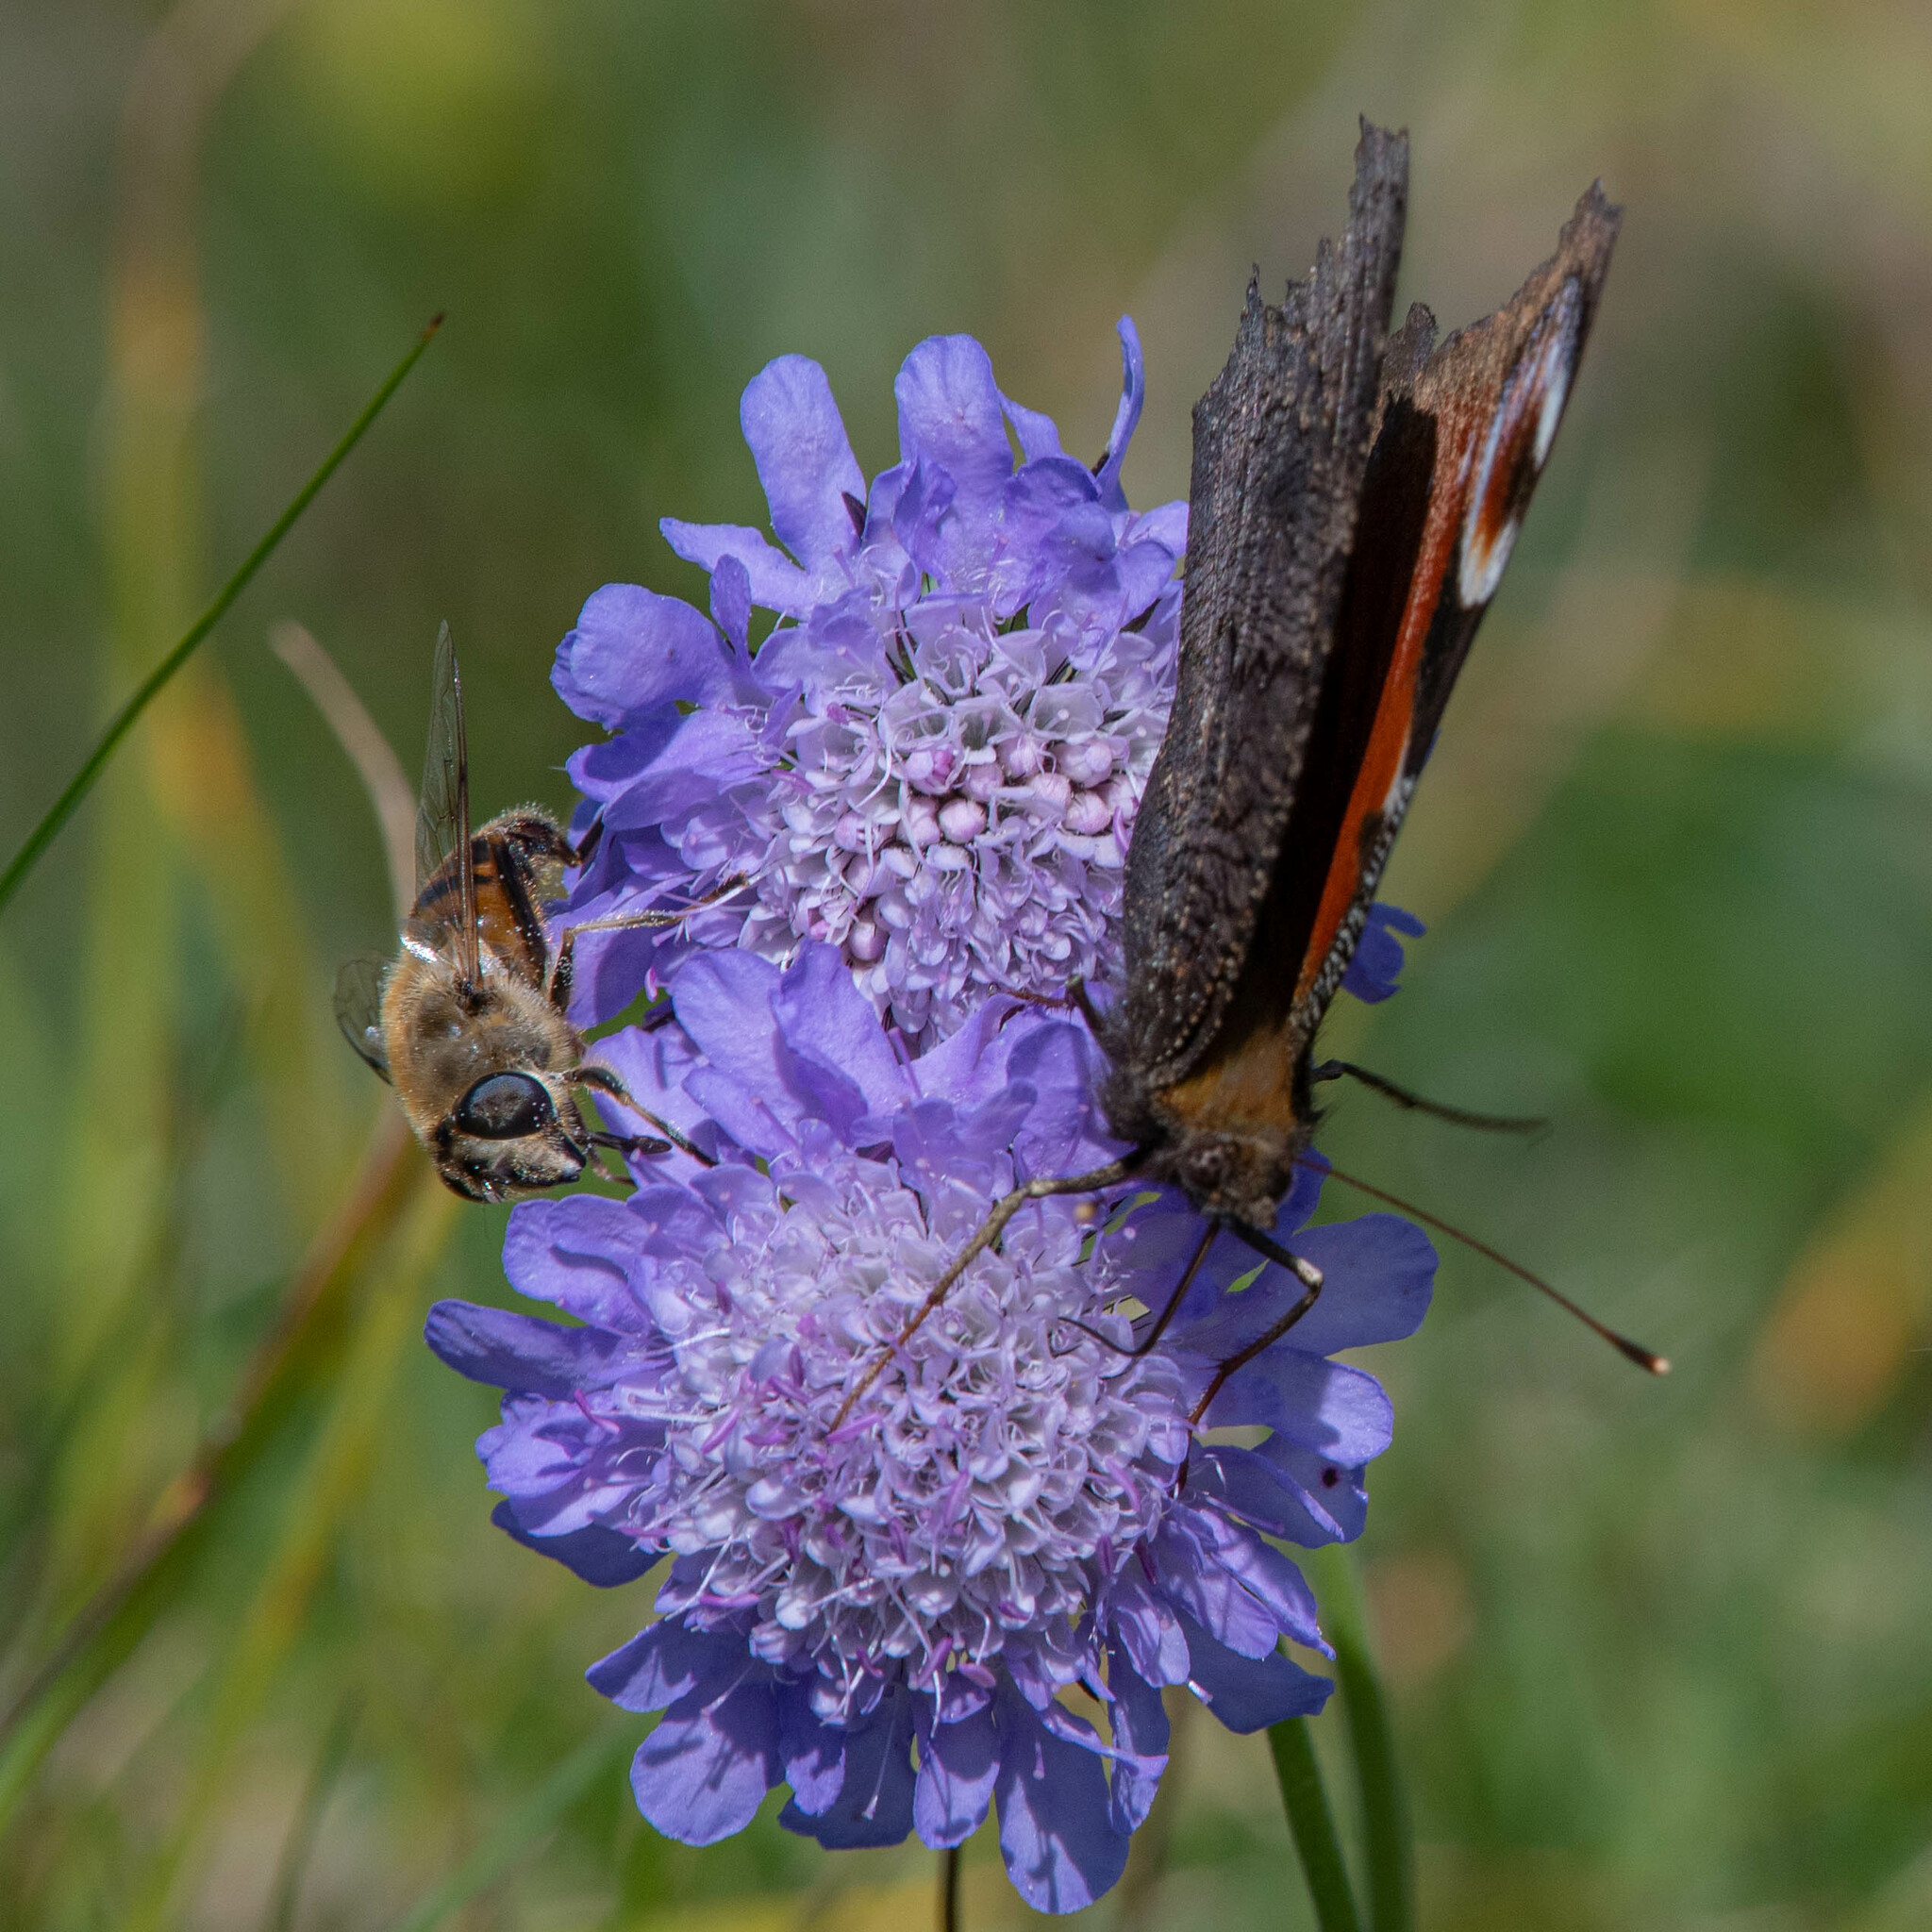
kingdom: Animalia
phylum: Arthropoda
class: Insecta
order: Lepidoptera
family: Nymphalidae
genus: Aglais
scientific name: Aglais io
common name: Peacock
